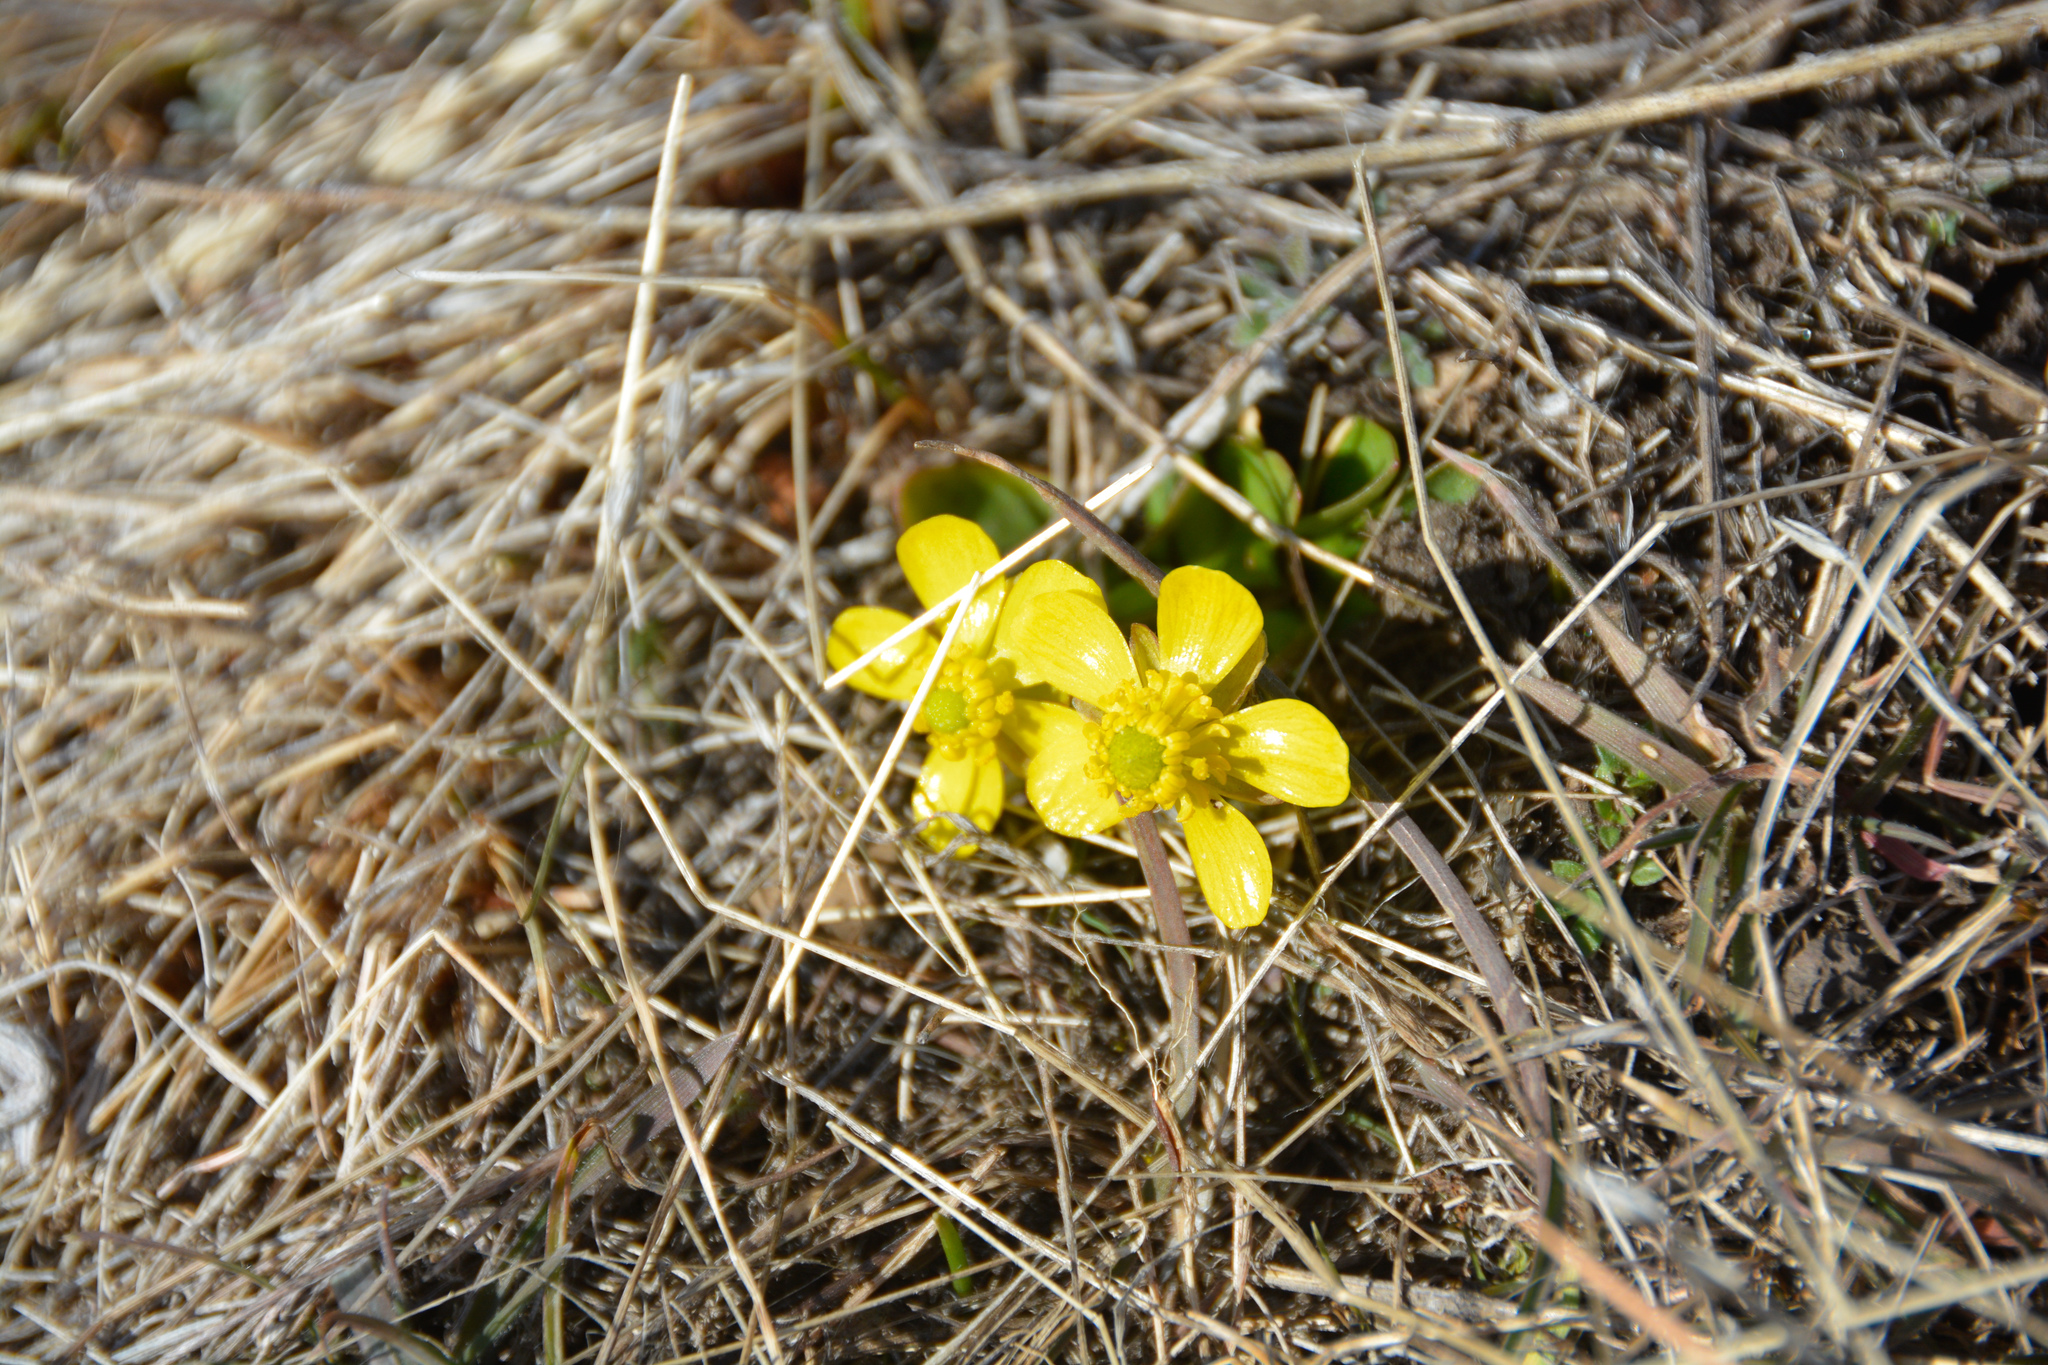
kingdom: Plantae
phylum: Tracheophyta
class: Magnoliopsida
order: Ranunculales
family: Ranunculaceae
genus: Ranunculus
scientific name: Ranunculus glaberrimus
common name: Sagebrush buttercup
